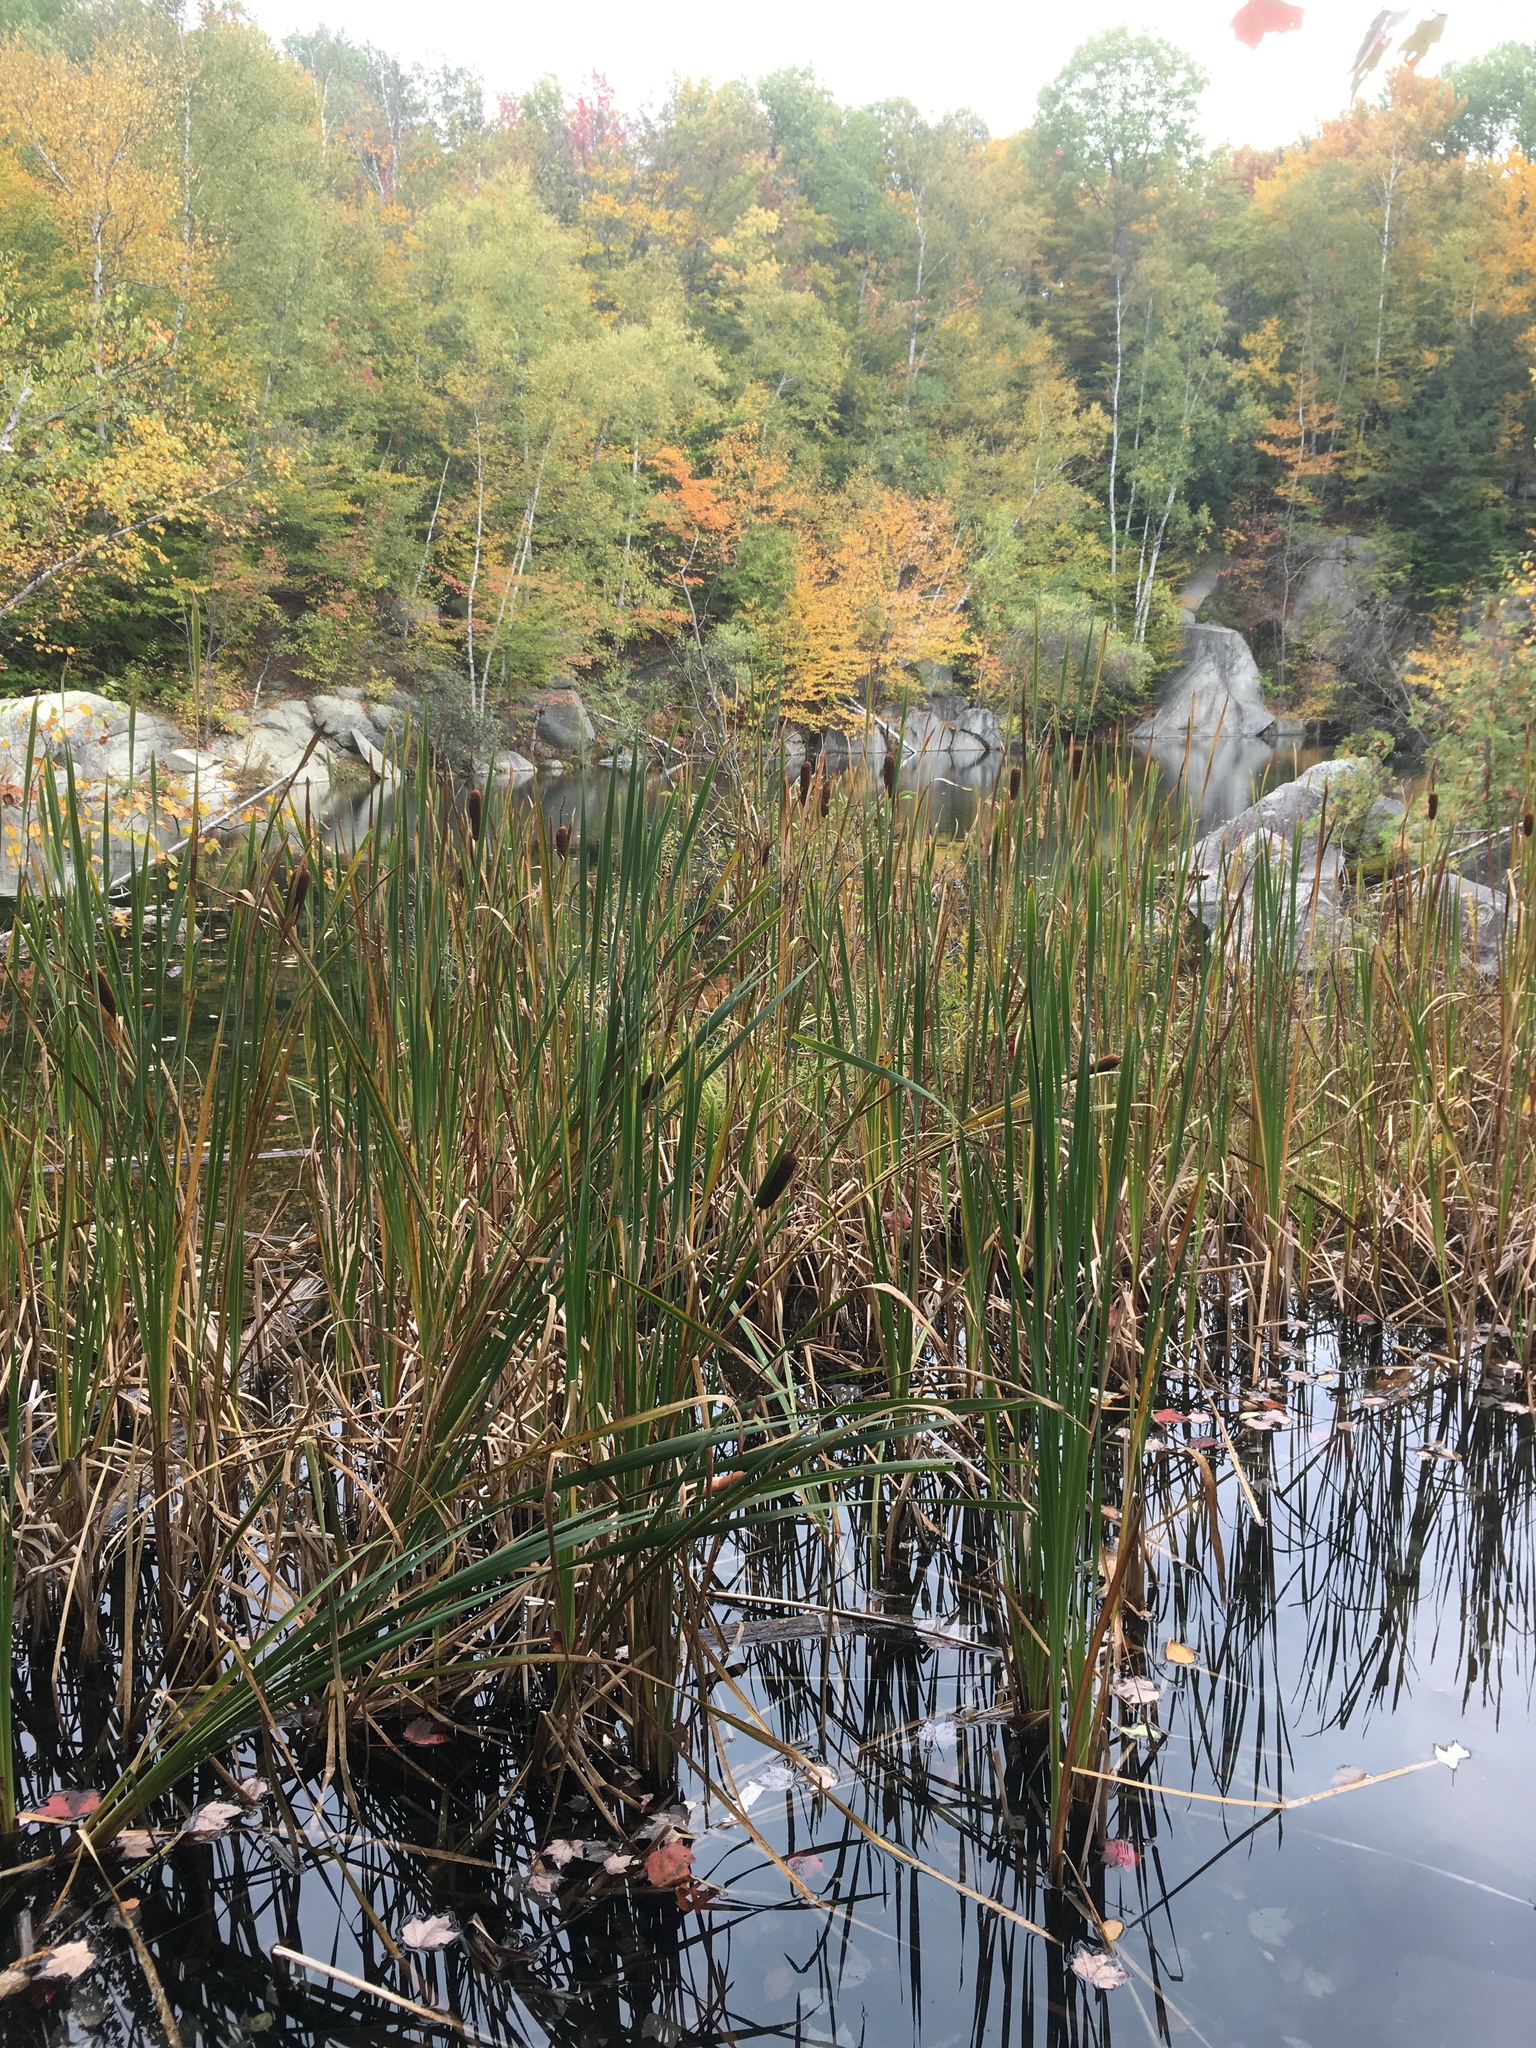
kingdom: Plantae
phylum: Tracheophyta
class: Liliopsida
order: Poales
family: Typhaceae
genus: Typha
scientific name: Typha latifolia
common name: Broadleaf cattail
